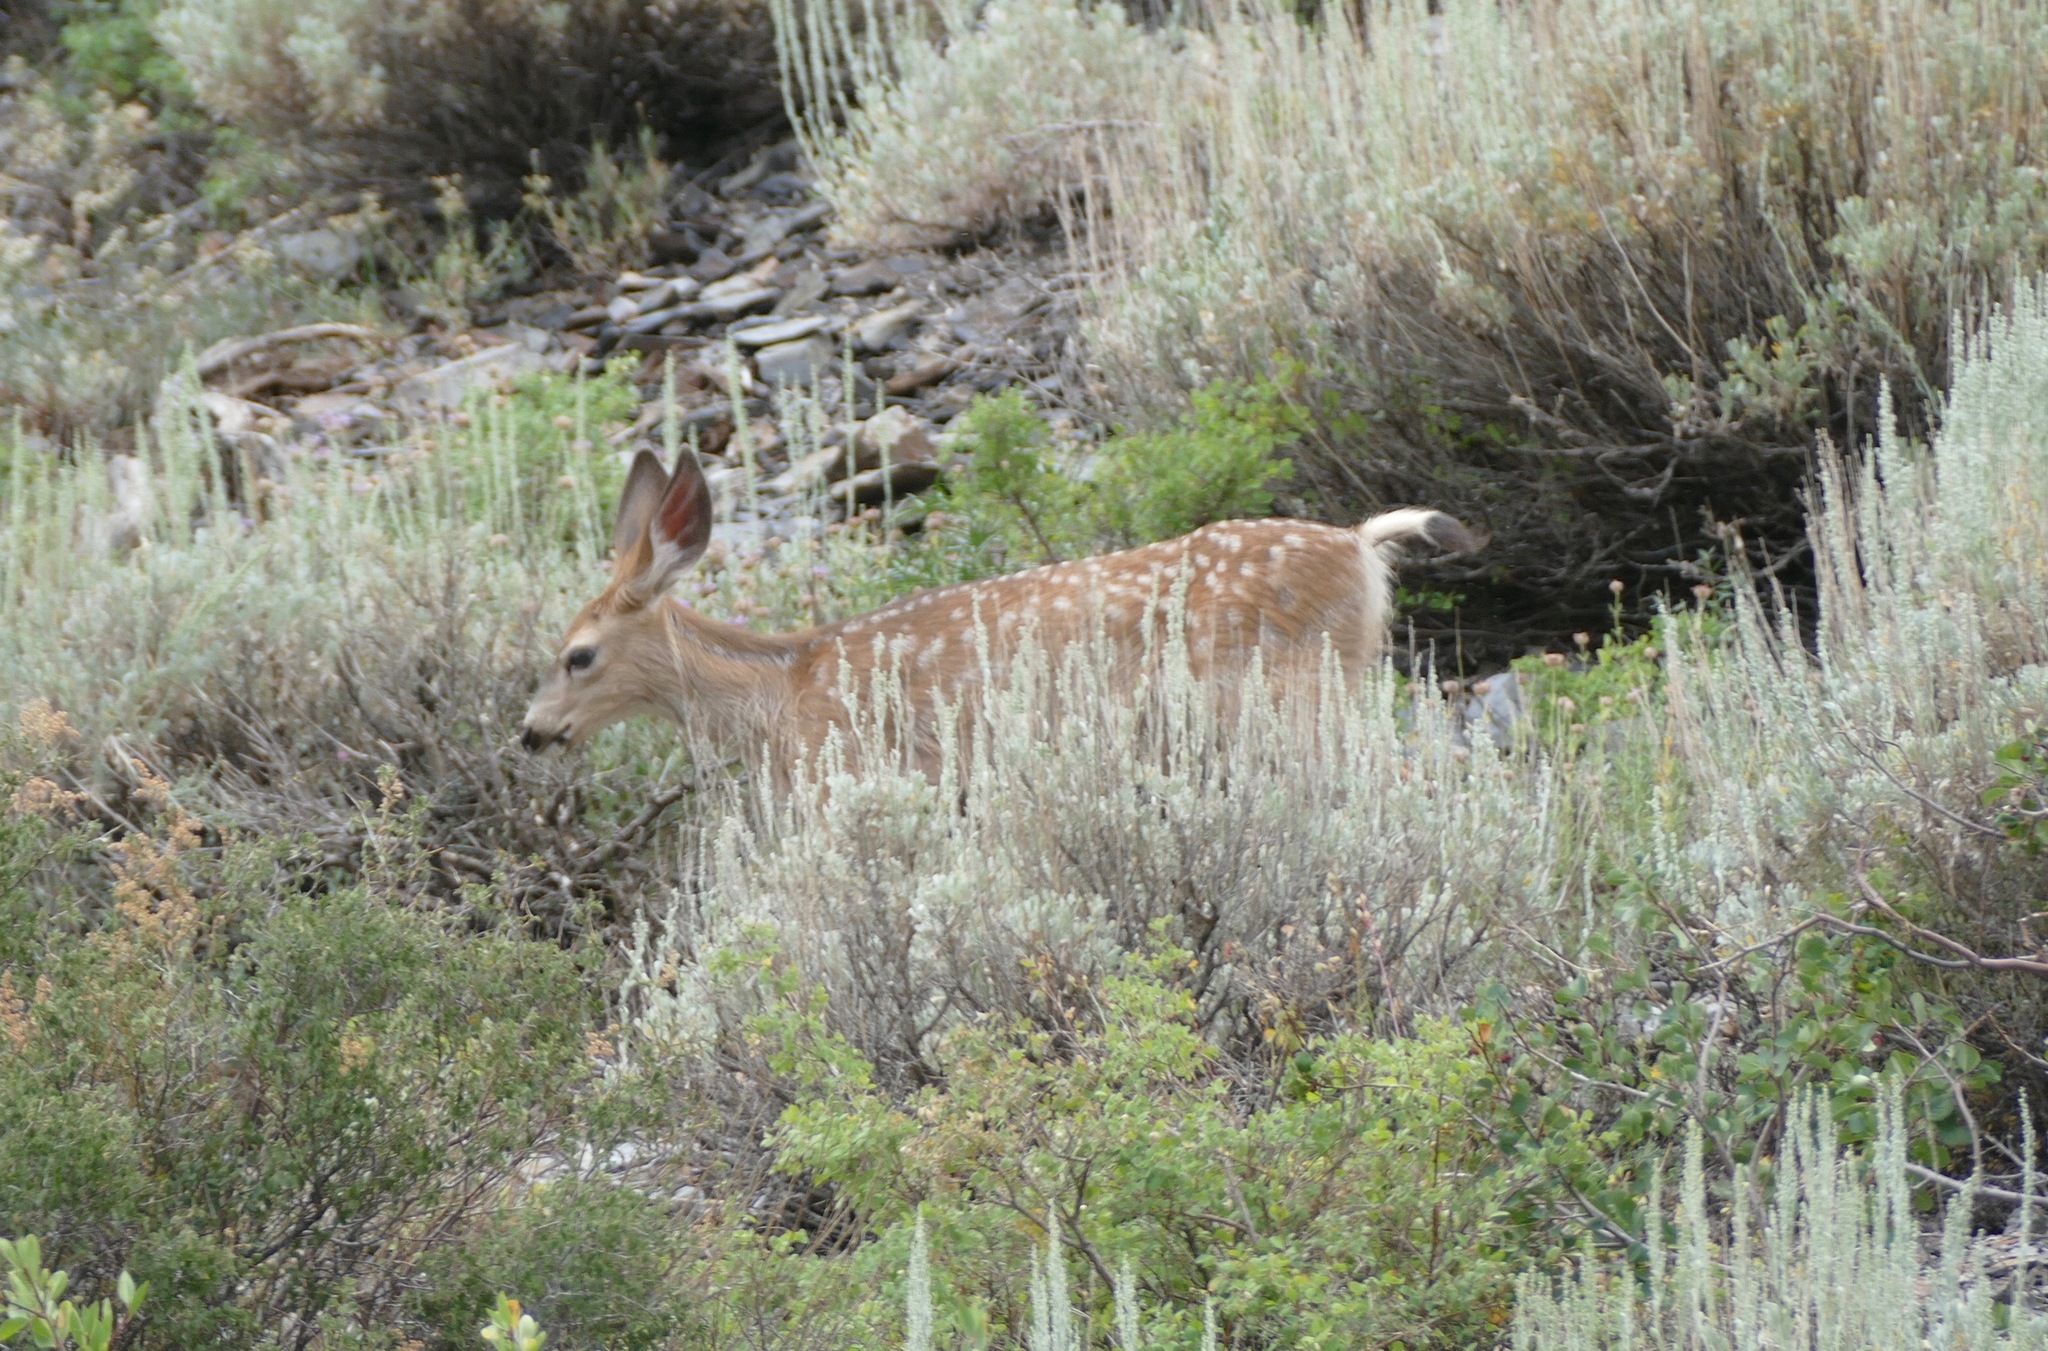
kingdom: Animalia
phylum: Chordata
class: Mammalia
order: Artiodactyla
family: Cervidae
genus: Odocoileus
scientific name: Odocoileus hemionus
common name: Mule deer
